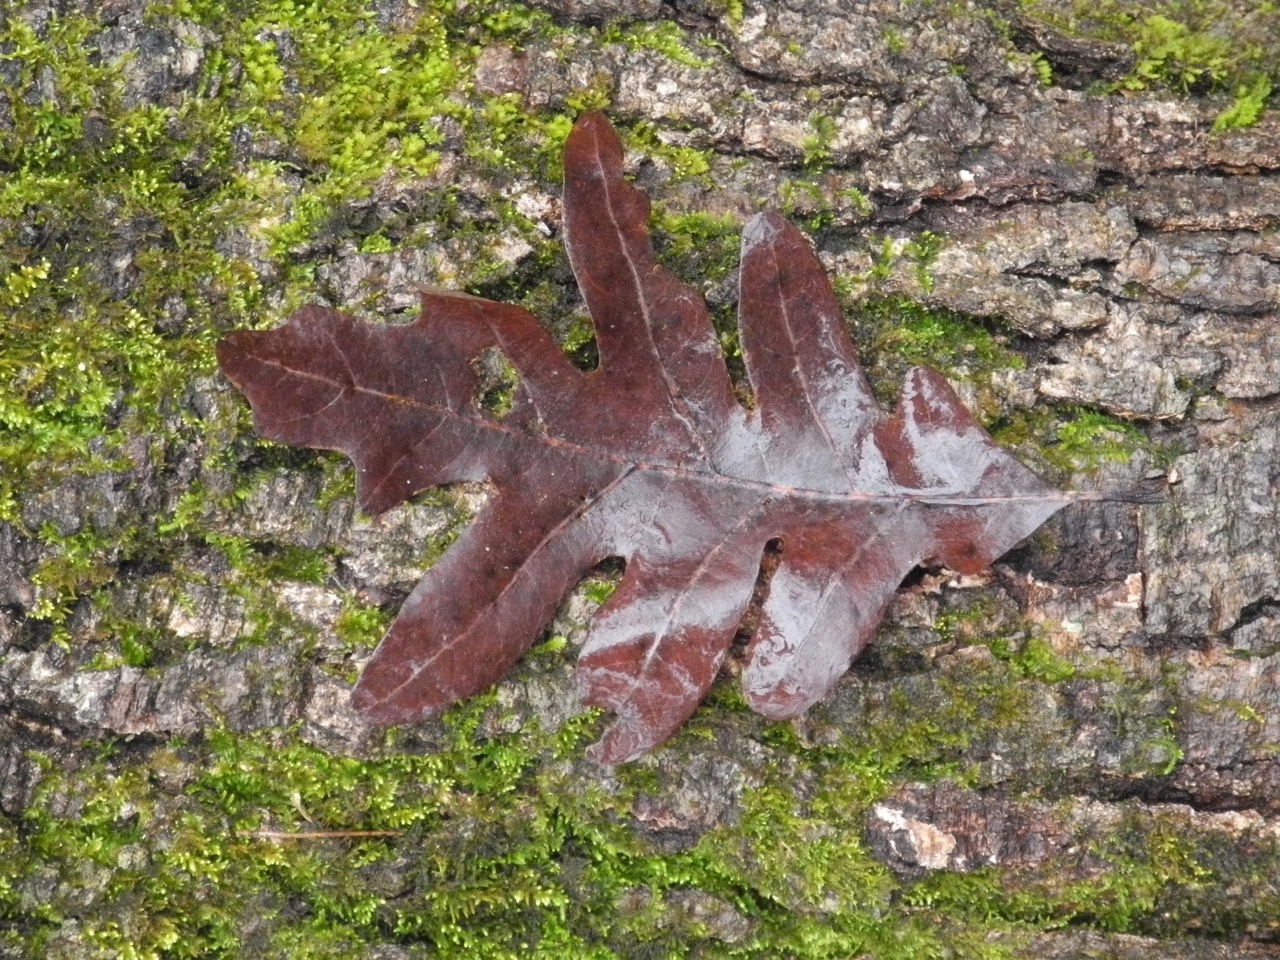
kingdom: Plantae
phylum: Tracheophyta
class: Magnoliopsida
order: Fagales
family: Fagaceae
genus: Quercus
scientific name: Quercus alba
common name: White oak
